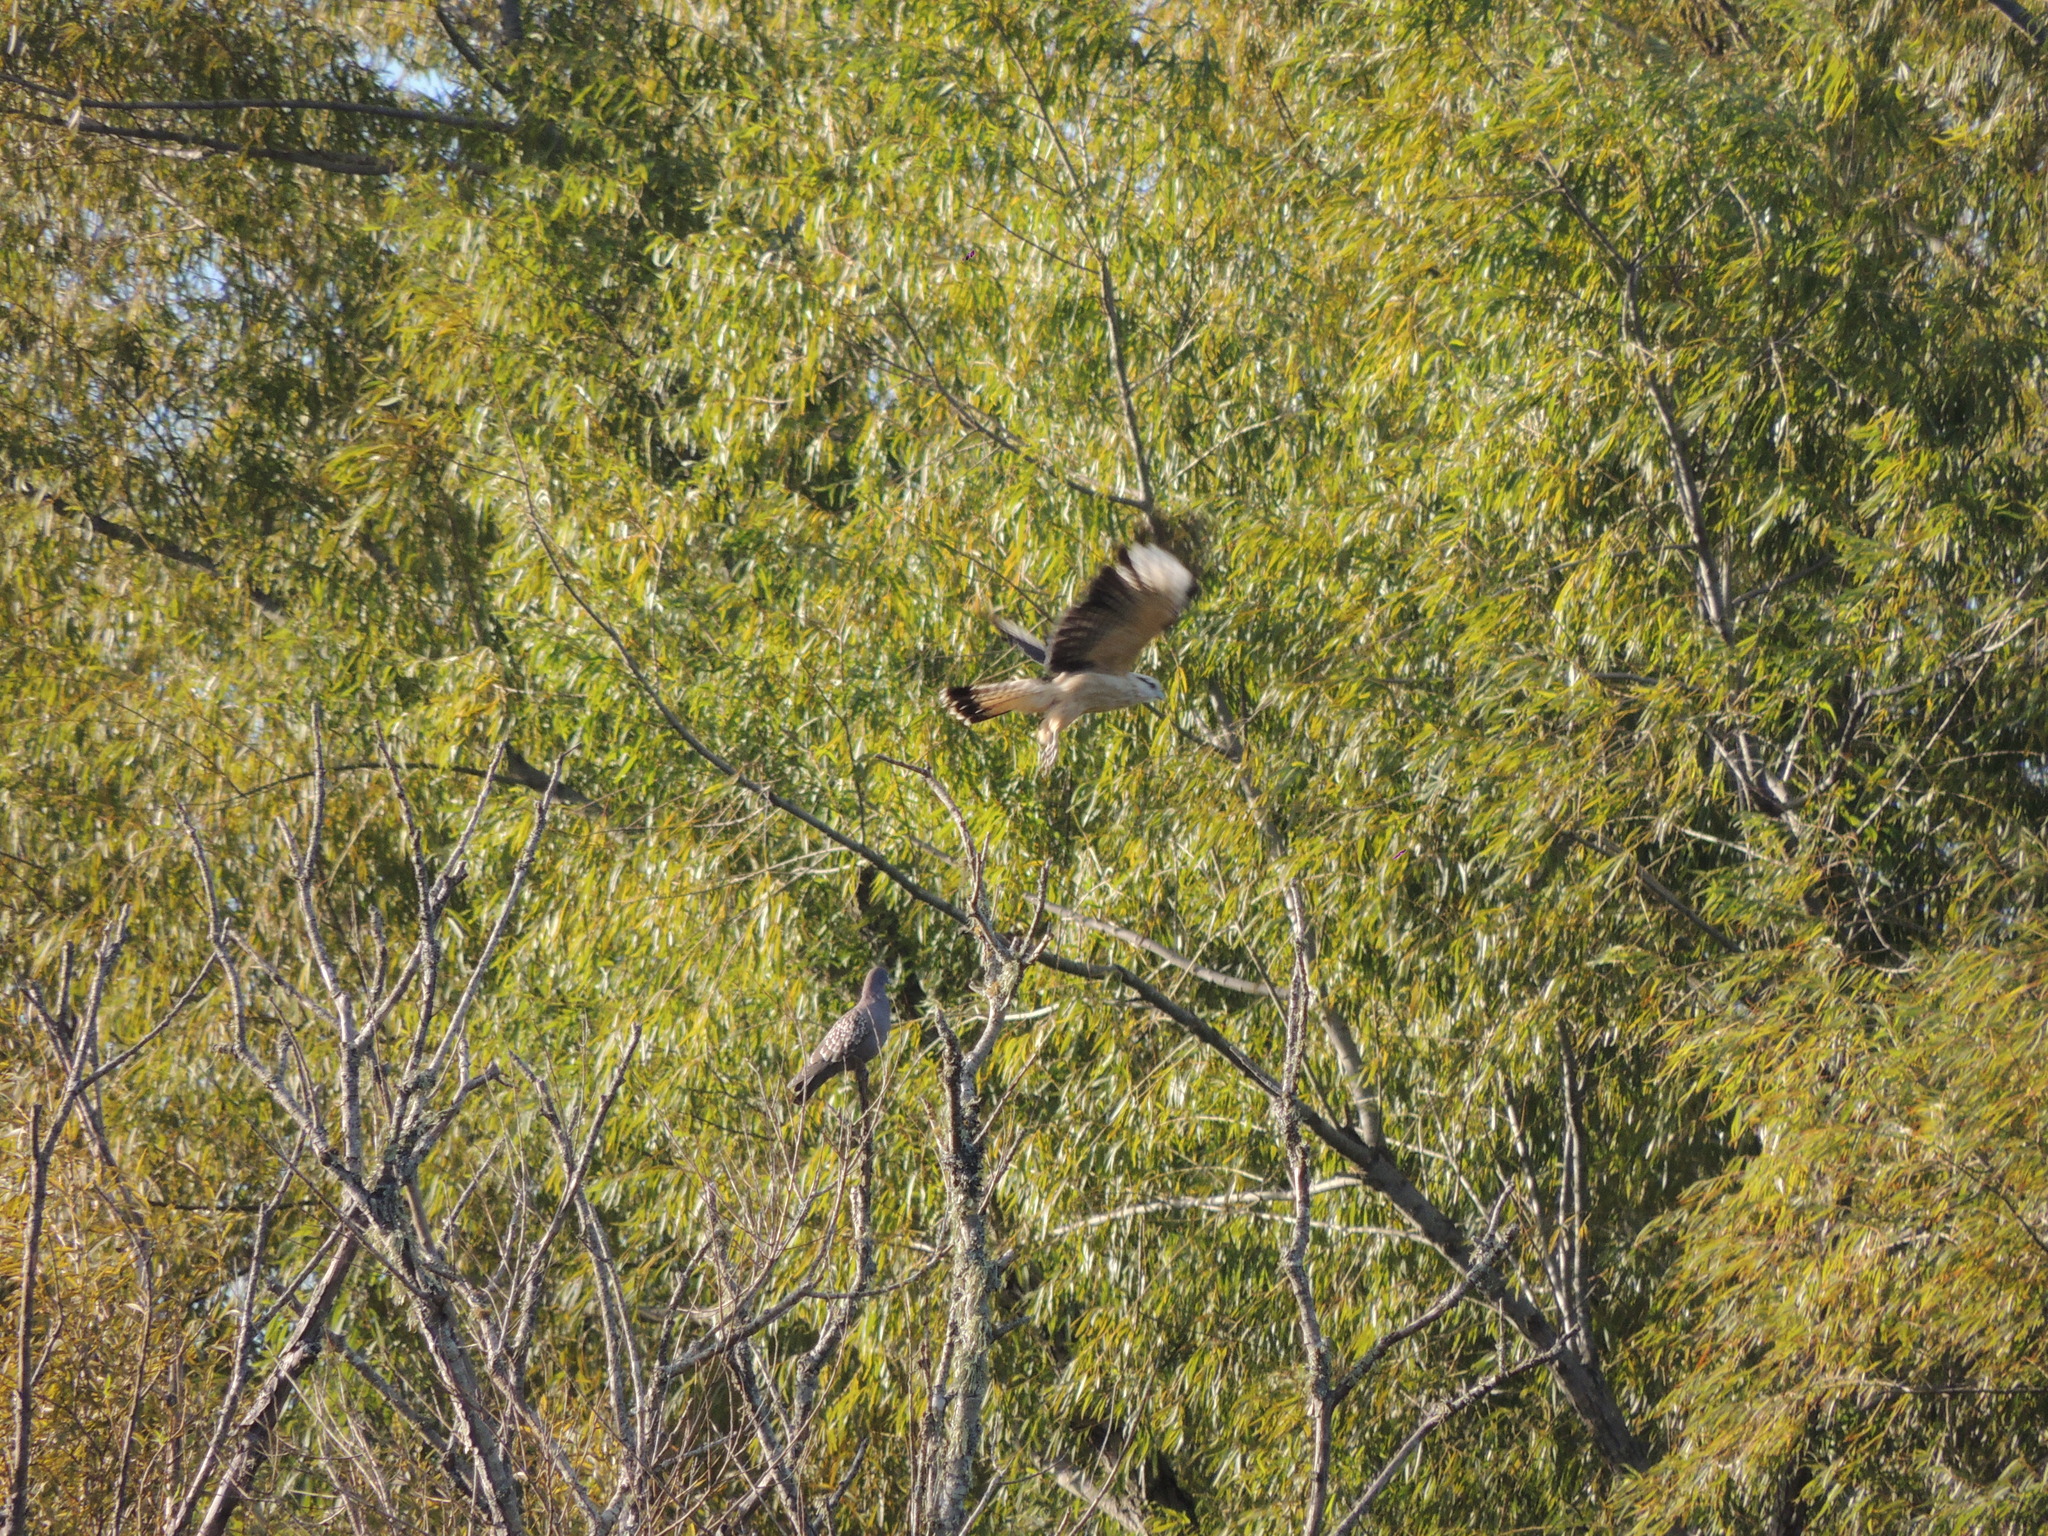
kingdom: Animalia
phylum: Chordata
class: Aves
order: Falconiformes
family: Falconidae
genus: Daptrius
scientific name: Daptrius
